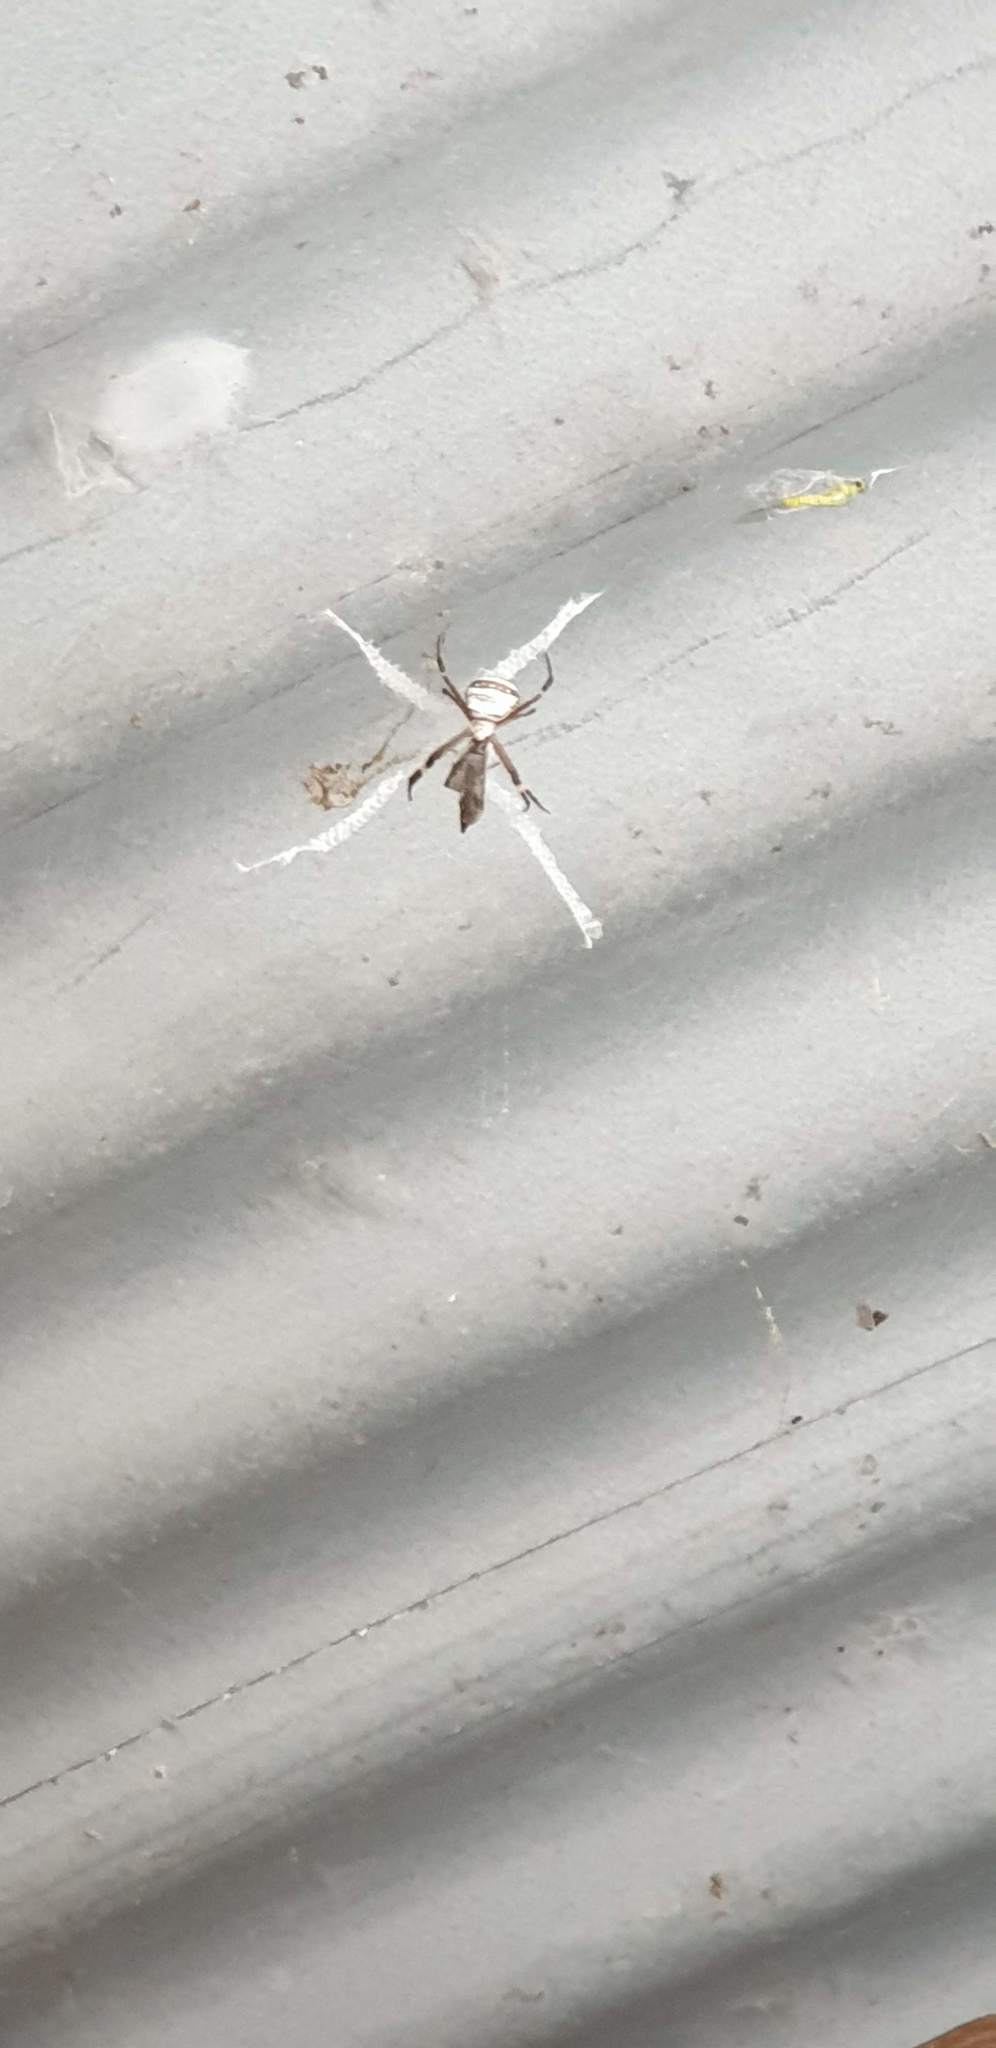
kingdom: Animalia
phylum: Arthropoda
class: Arachnida
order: Araneae
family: Araneidae
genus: Argiope
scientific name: Argiope keyserlingi
